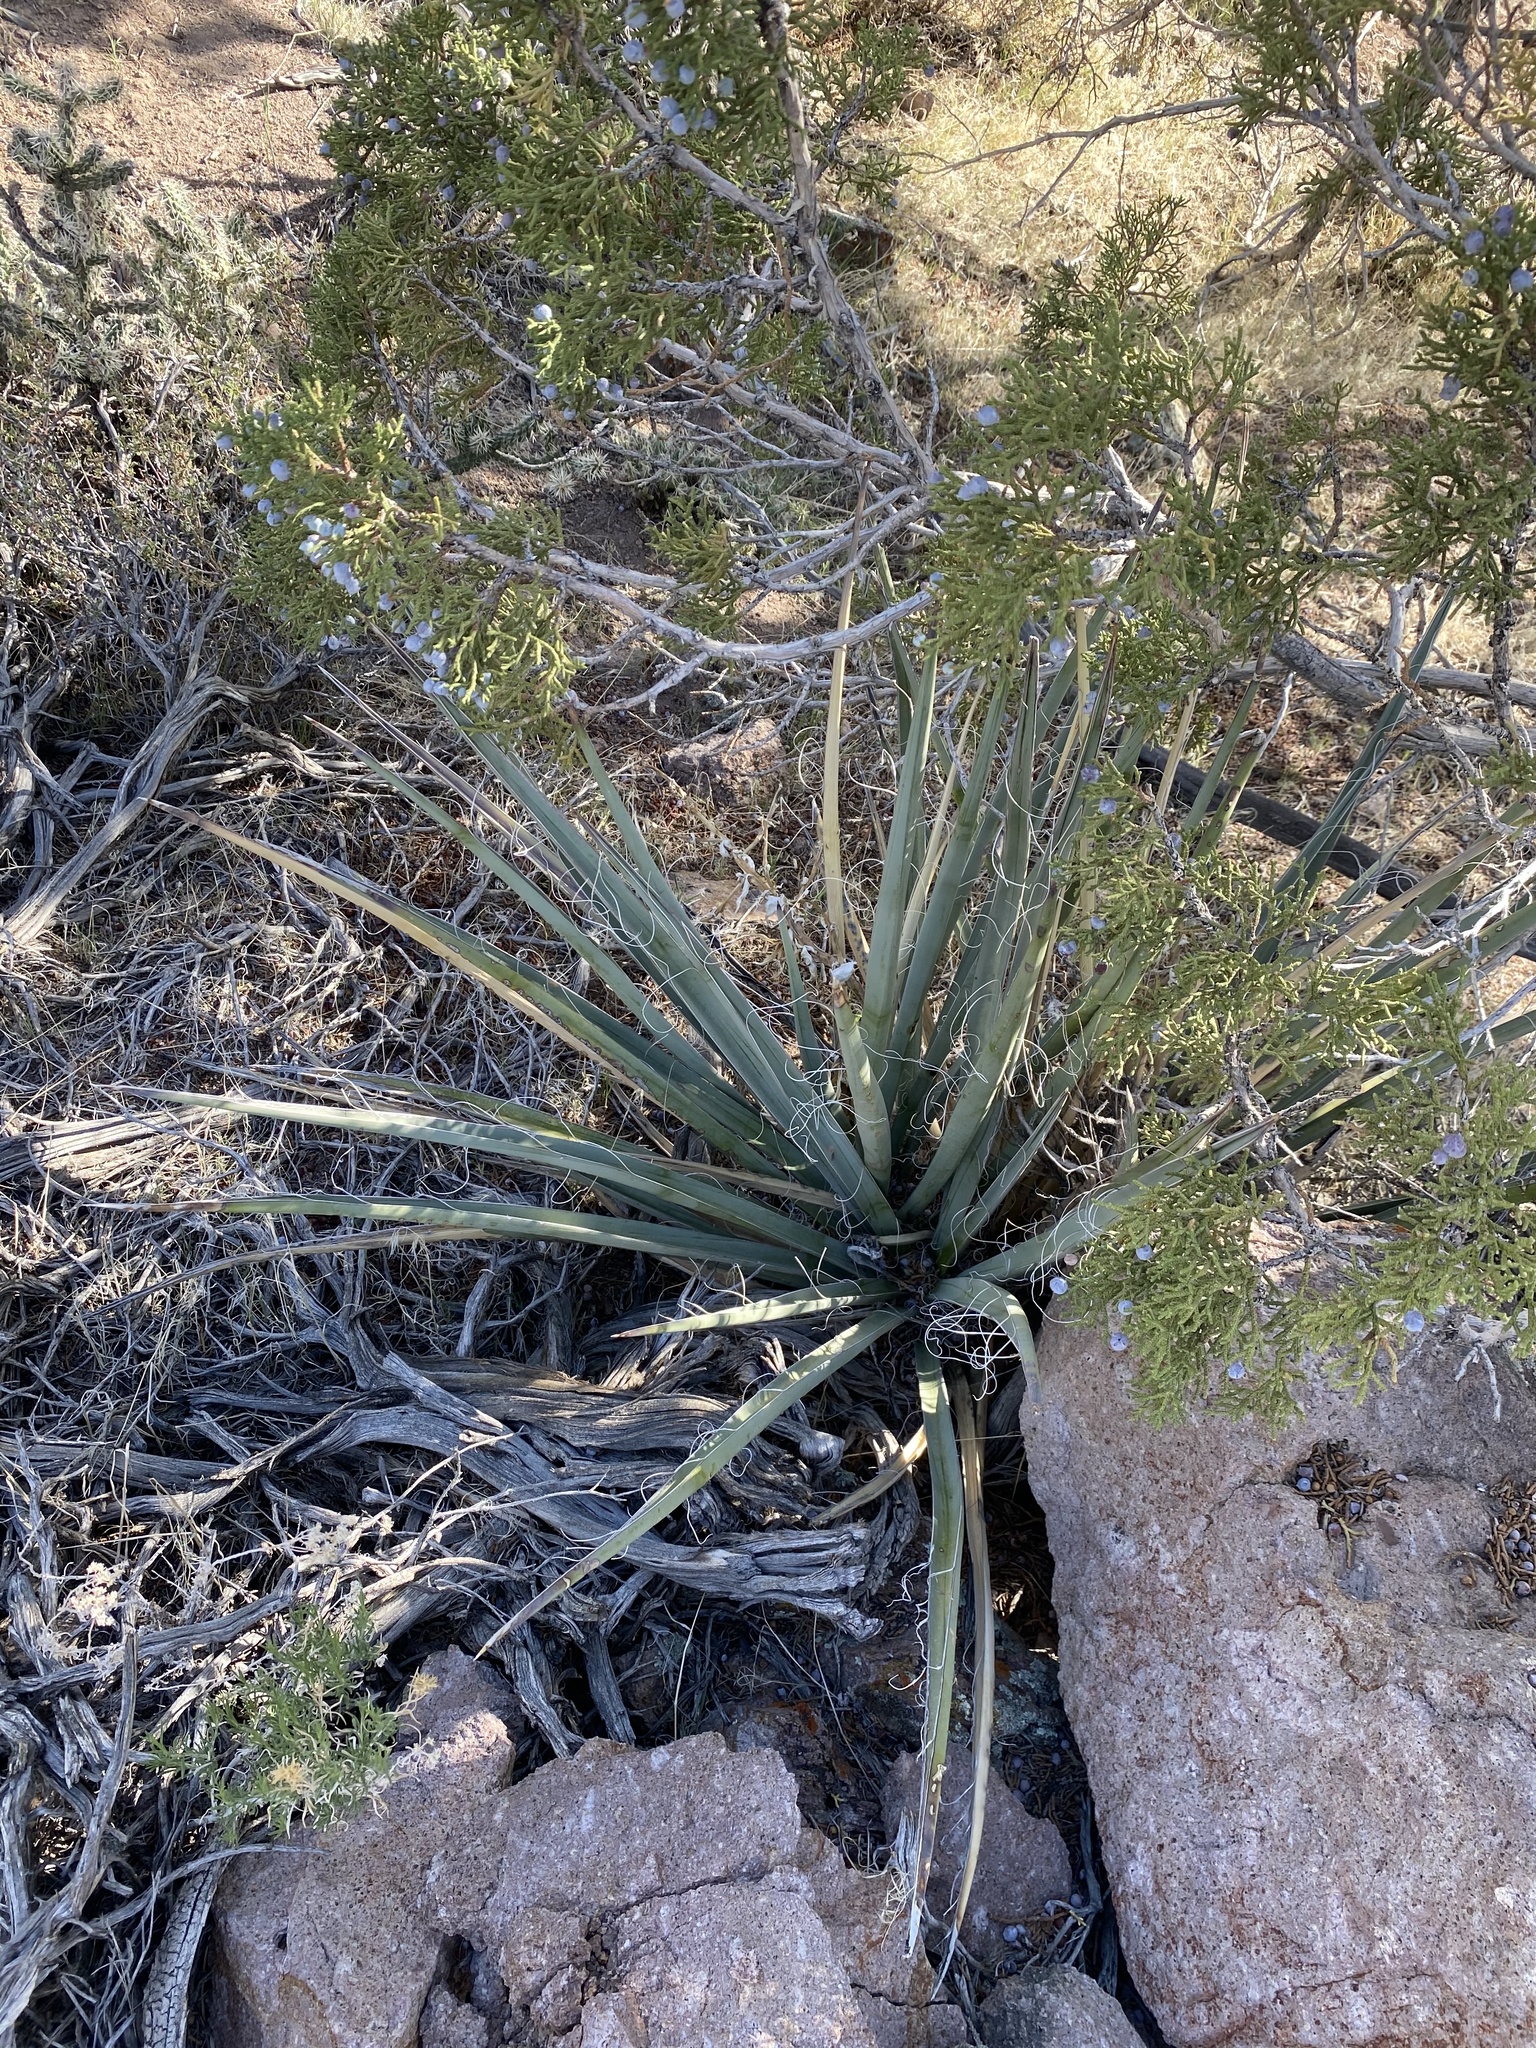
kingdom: Plantae
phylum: Tracheophyta
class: Liliopsida
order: Asparagales
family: Asparagaceae
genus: Yucca
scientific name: Yucca baccata
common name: Banana yucca
